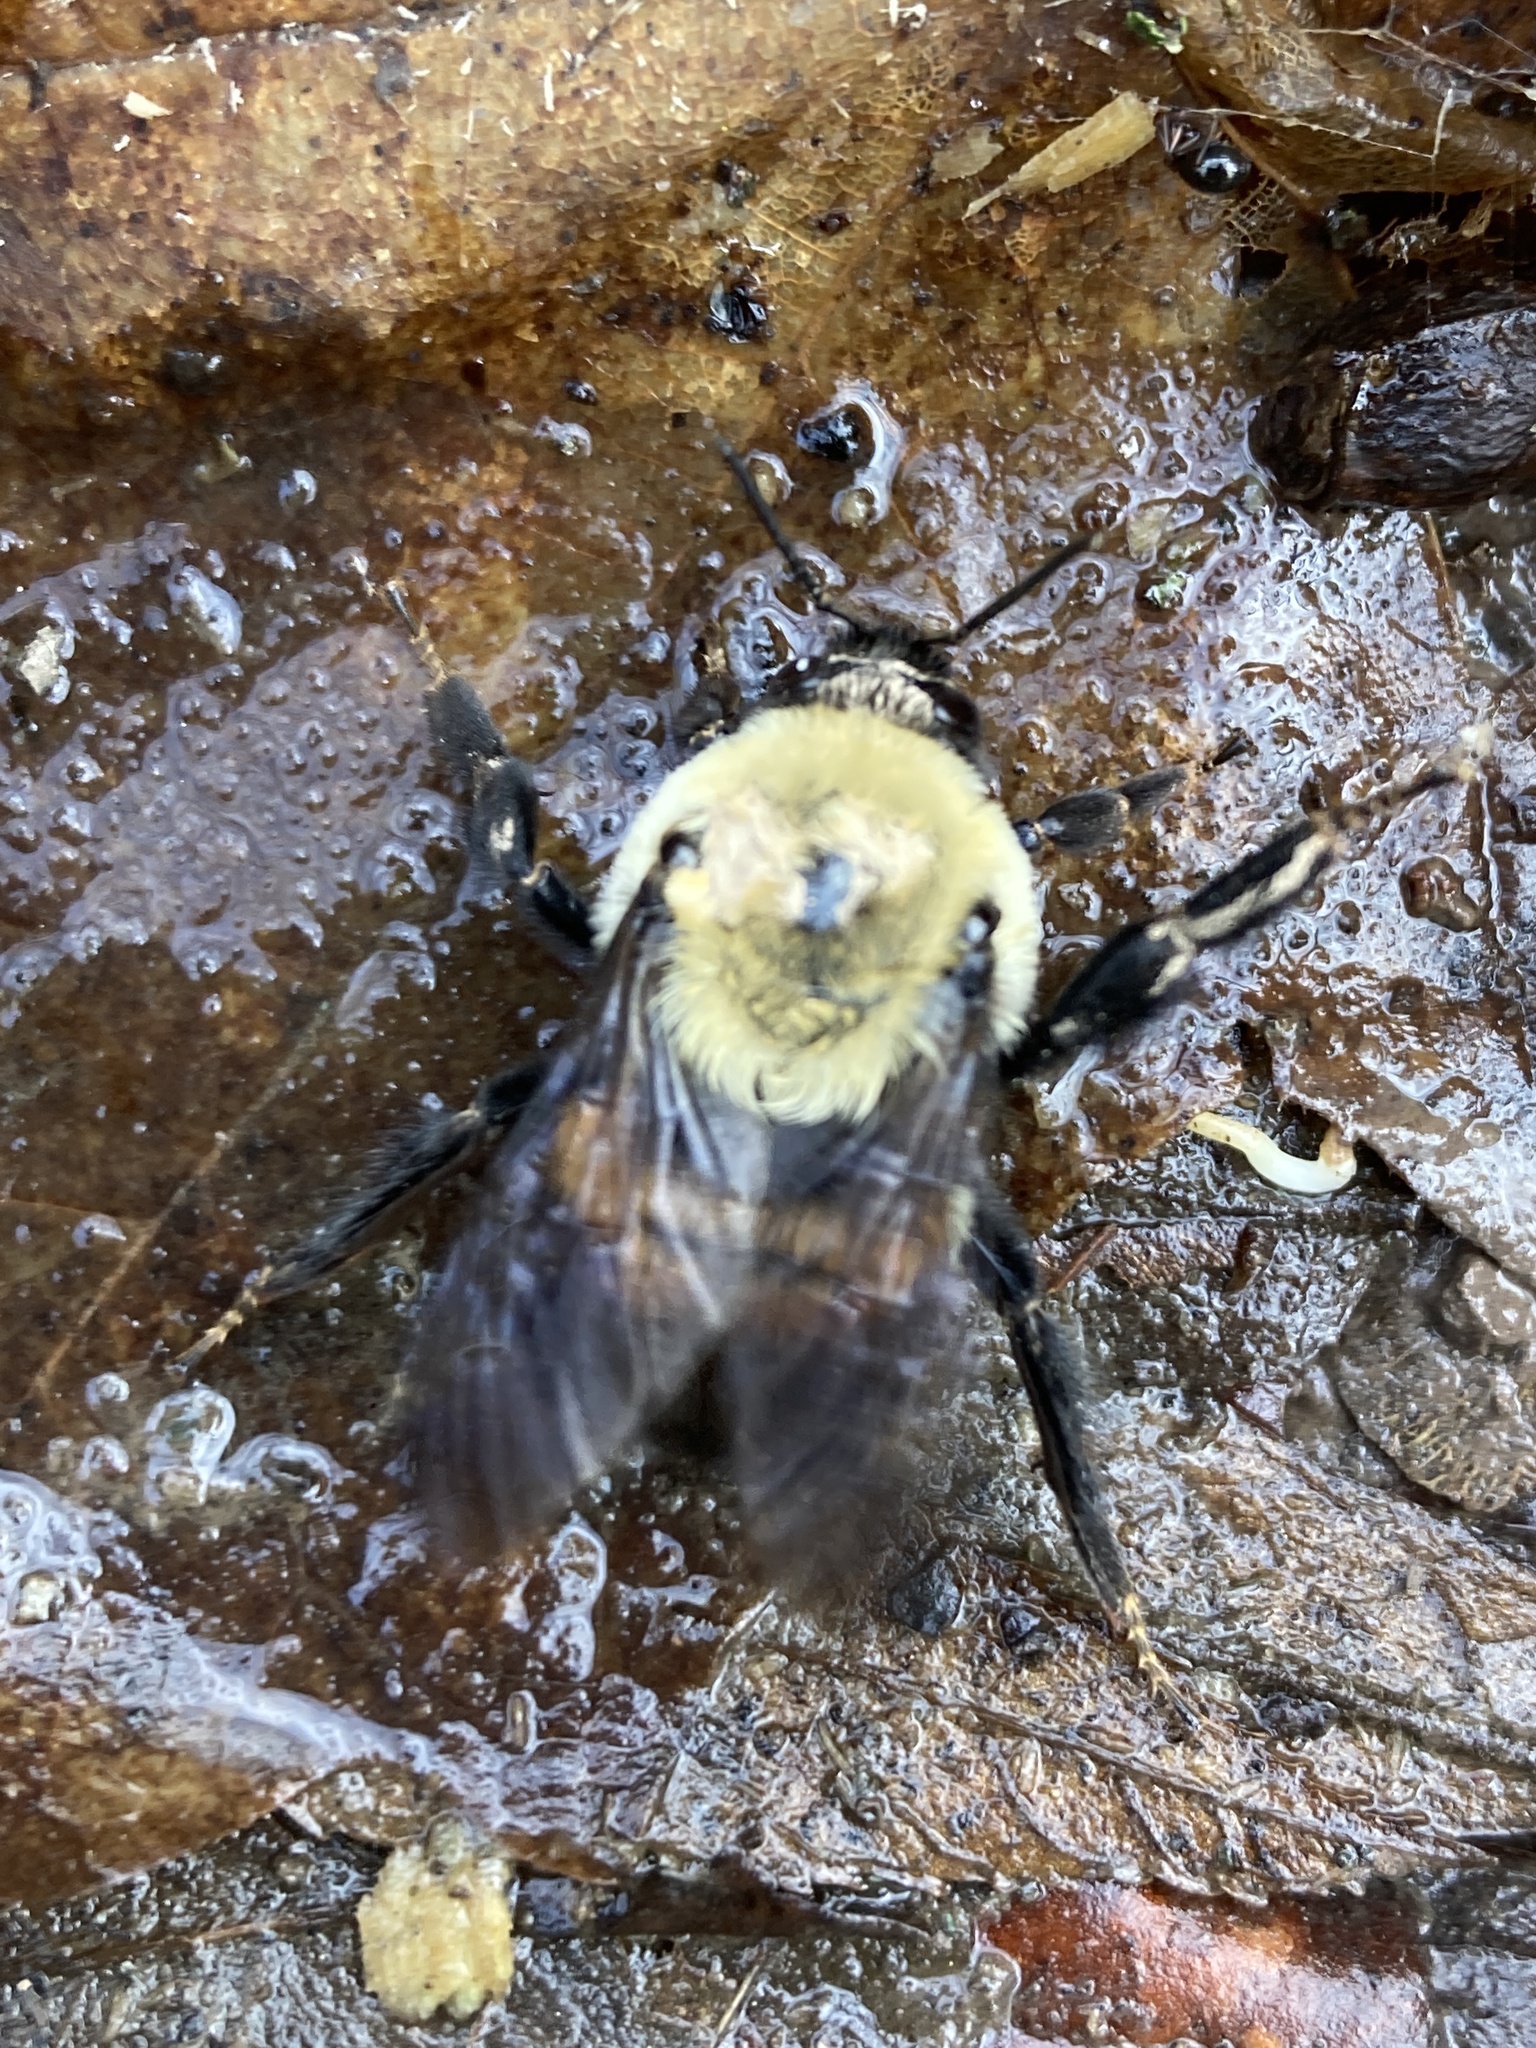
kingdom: Animalia
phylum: Arthropoda
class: Insecta
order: Hymenoptera
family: Apidae
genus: Bombus
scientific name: Bombus griseocollis
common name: Brown-belted bumble bee
